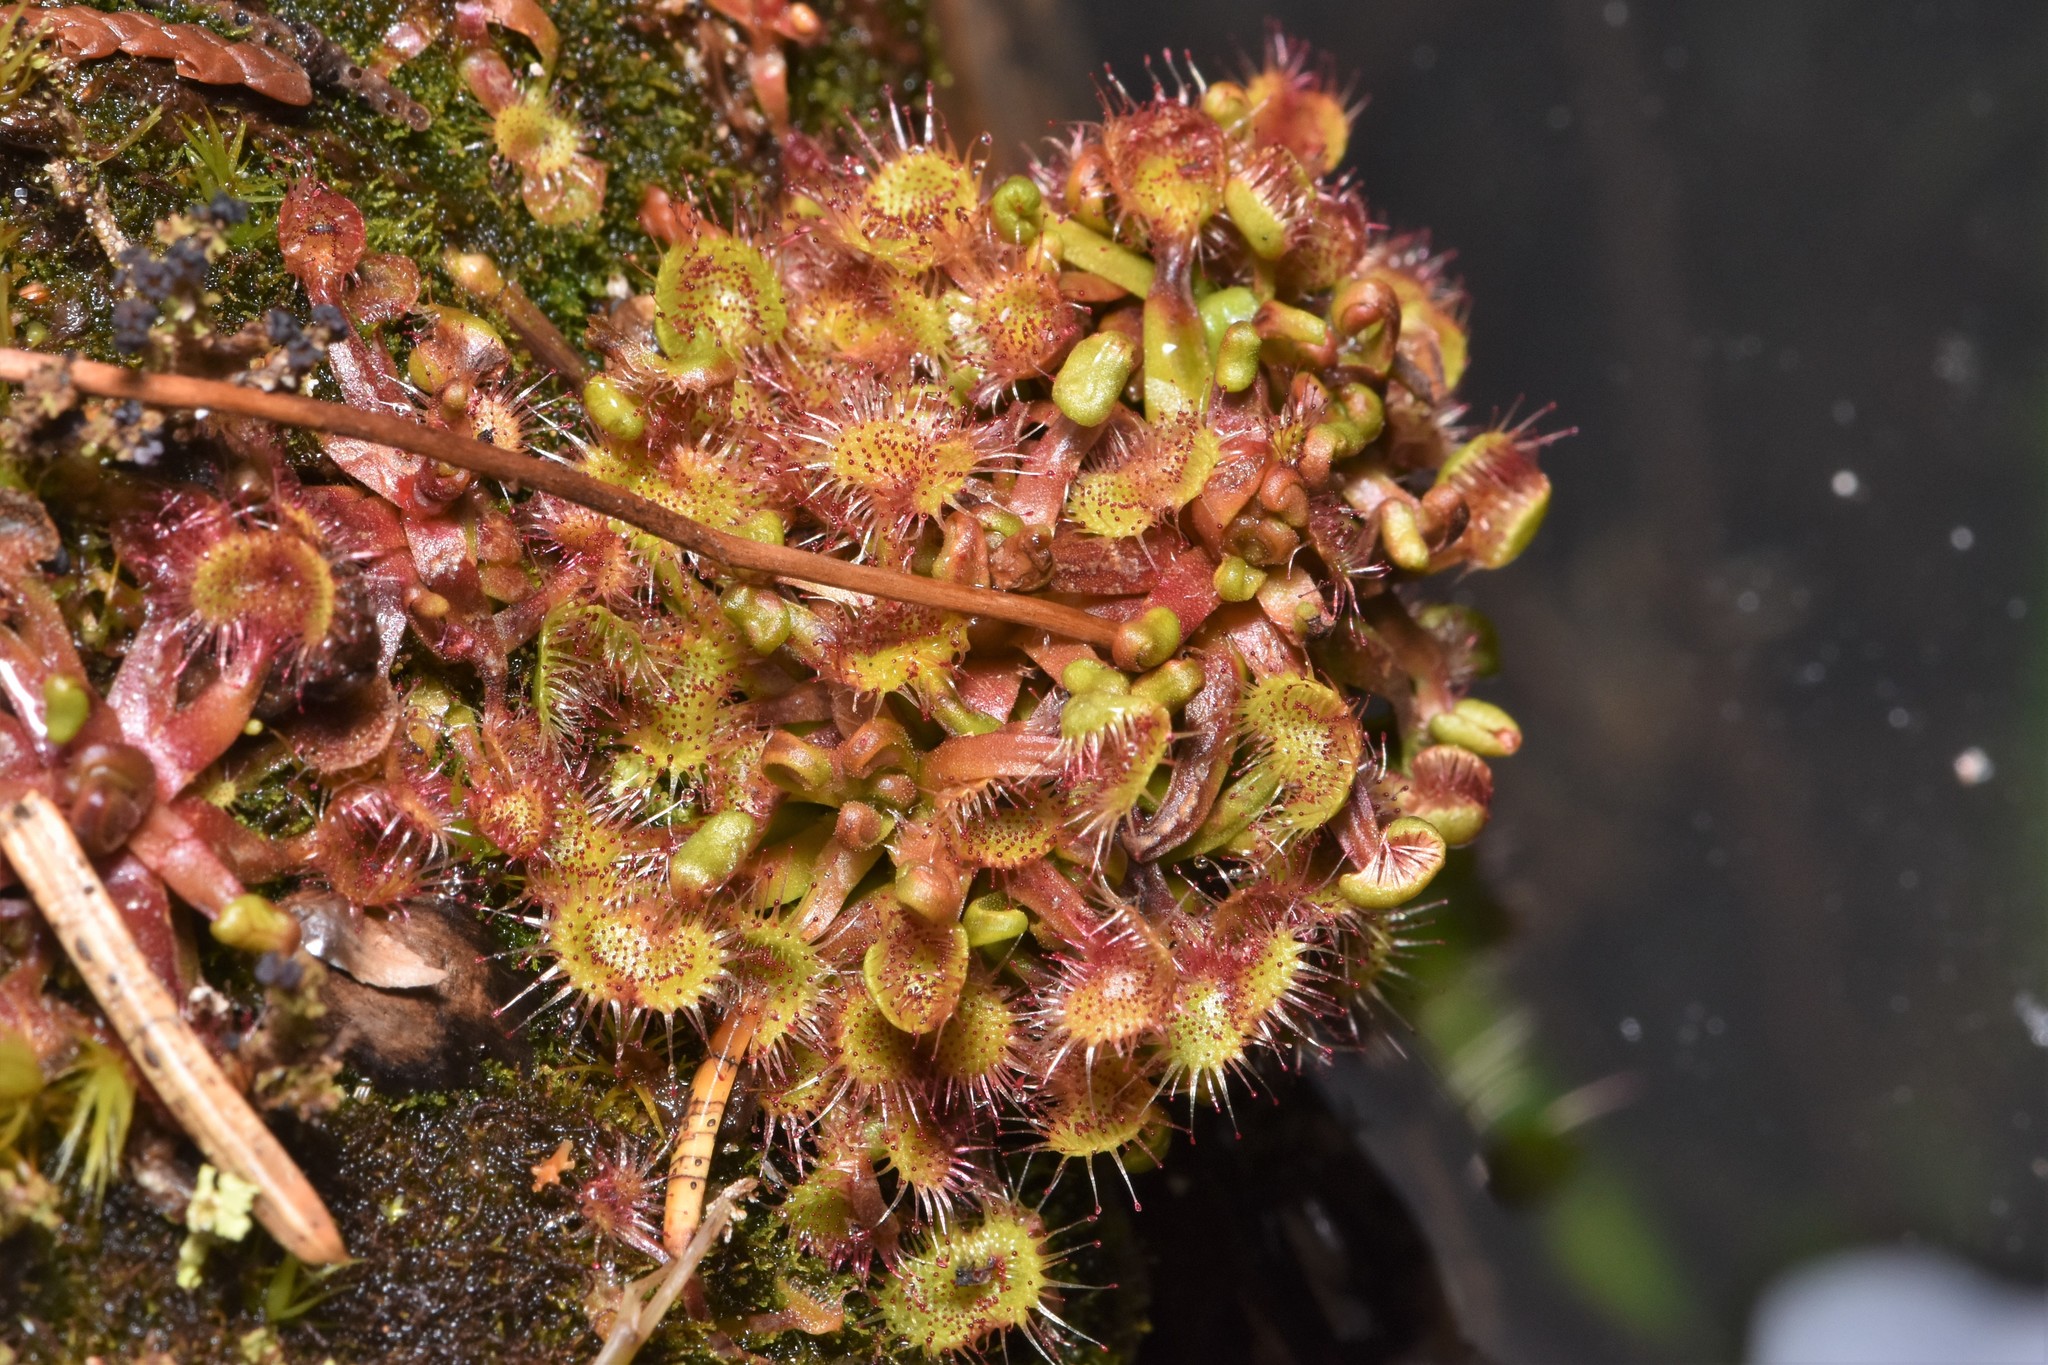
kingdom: Plantae
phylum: Tracheophyta
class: Magnoliopsida
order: Caryophyllales
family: Droseraceae
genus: Drosera
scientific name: Drosera rotundifolia
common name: Round-leaved sundew
